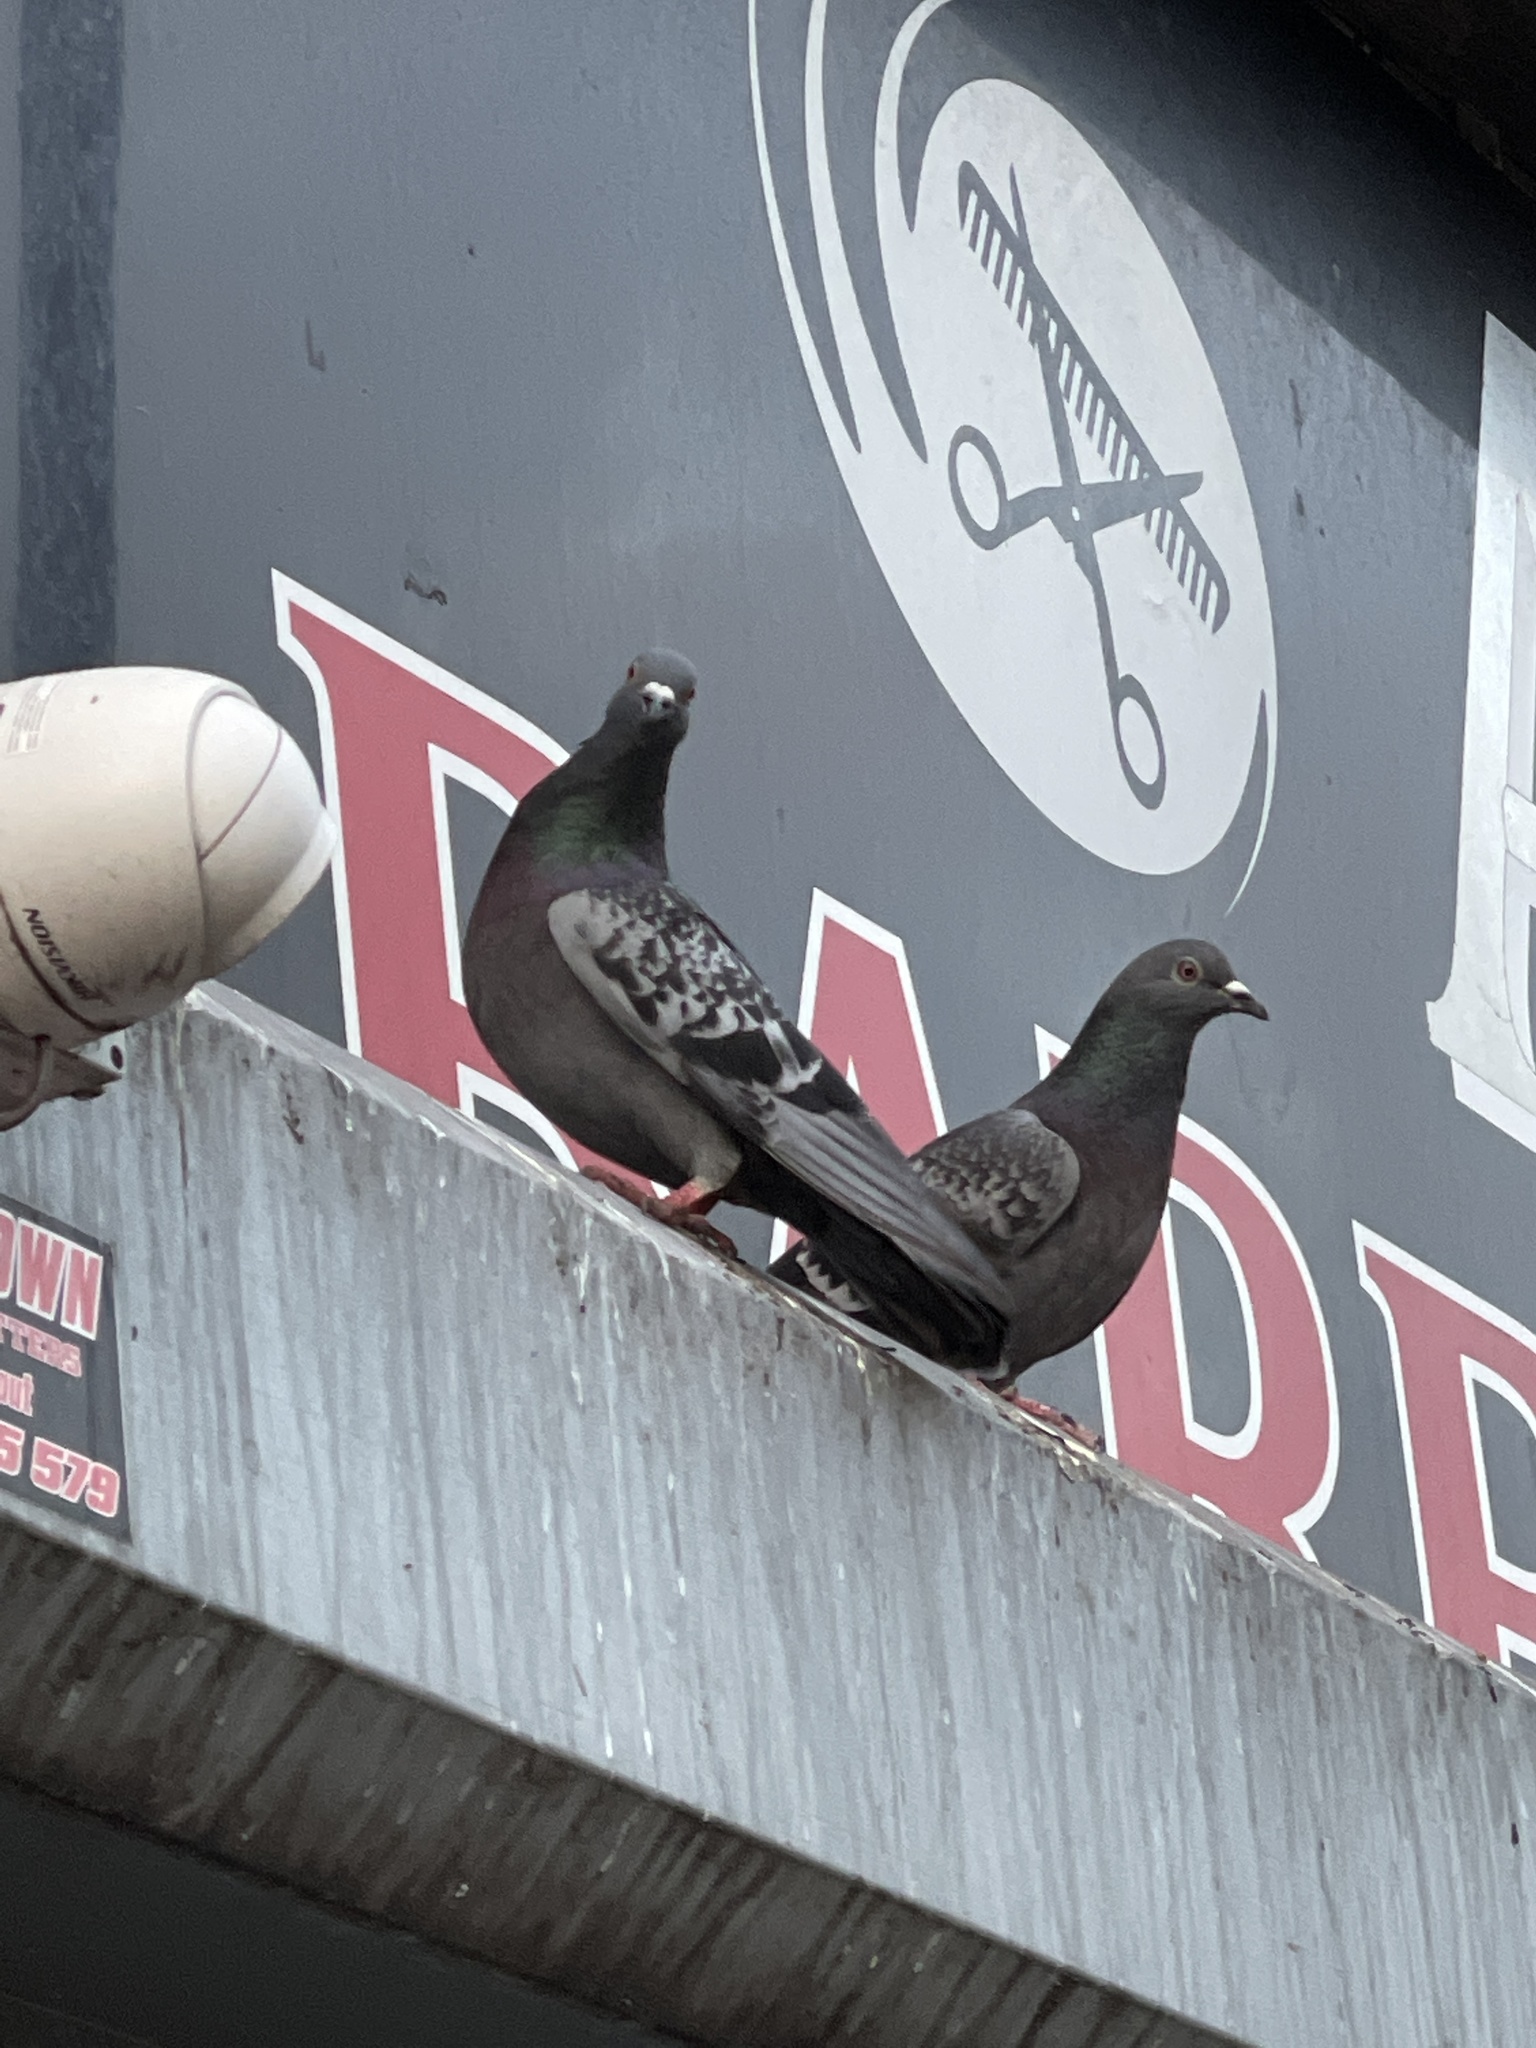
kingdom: Animalia
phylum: Chordata
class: Aves
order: Columbiformes
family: Columbidae
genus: Columba
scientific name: Columba livia
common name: Rock pigeon
